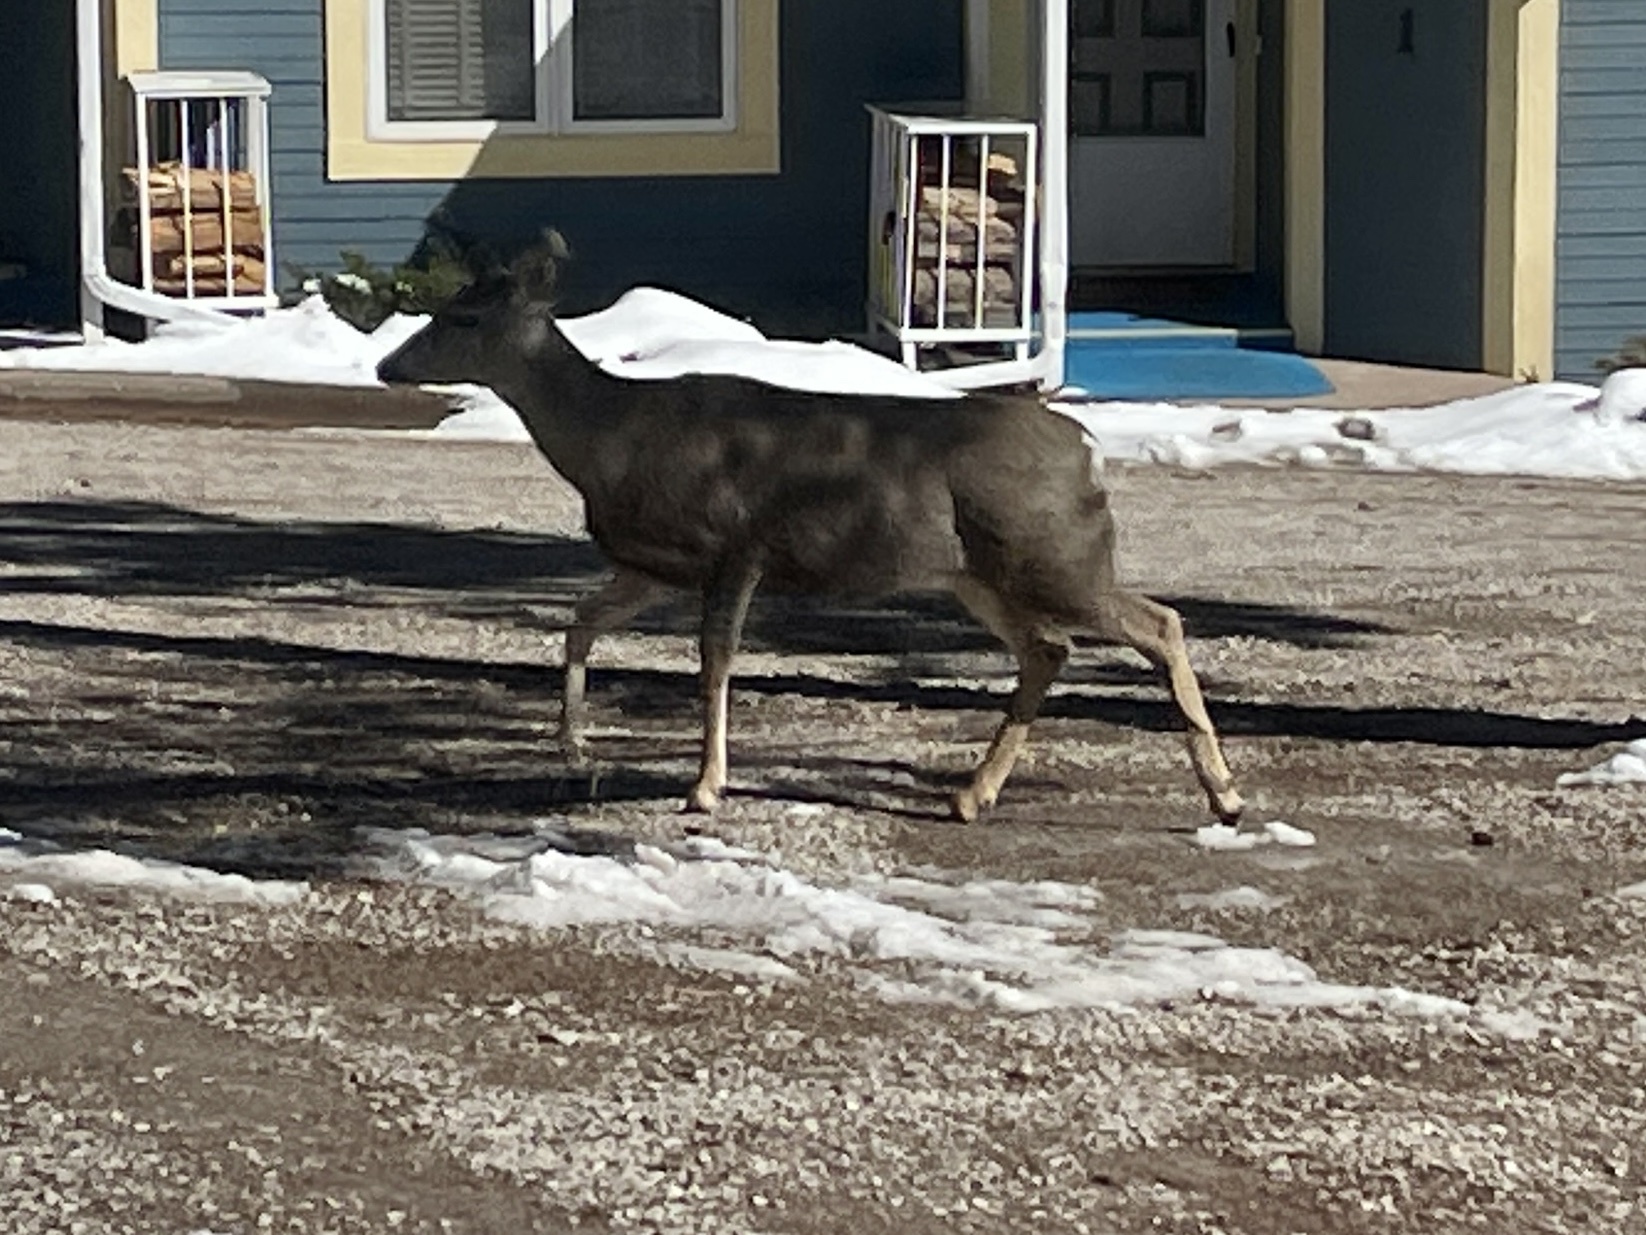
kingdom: Animalia
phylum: Chordata
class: Mammalia
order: Artiodactyla
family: Cervidae
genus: Odocoileus
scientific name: Odocoileus hemionus
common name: Mule deer
